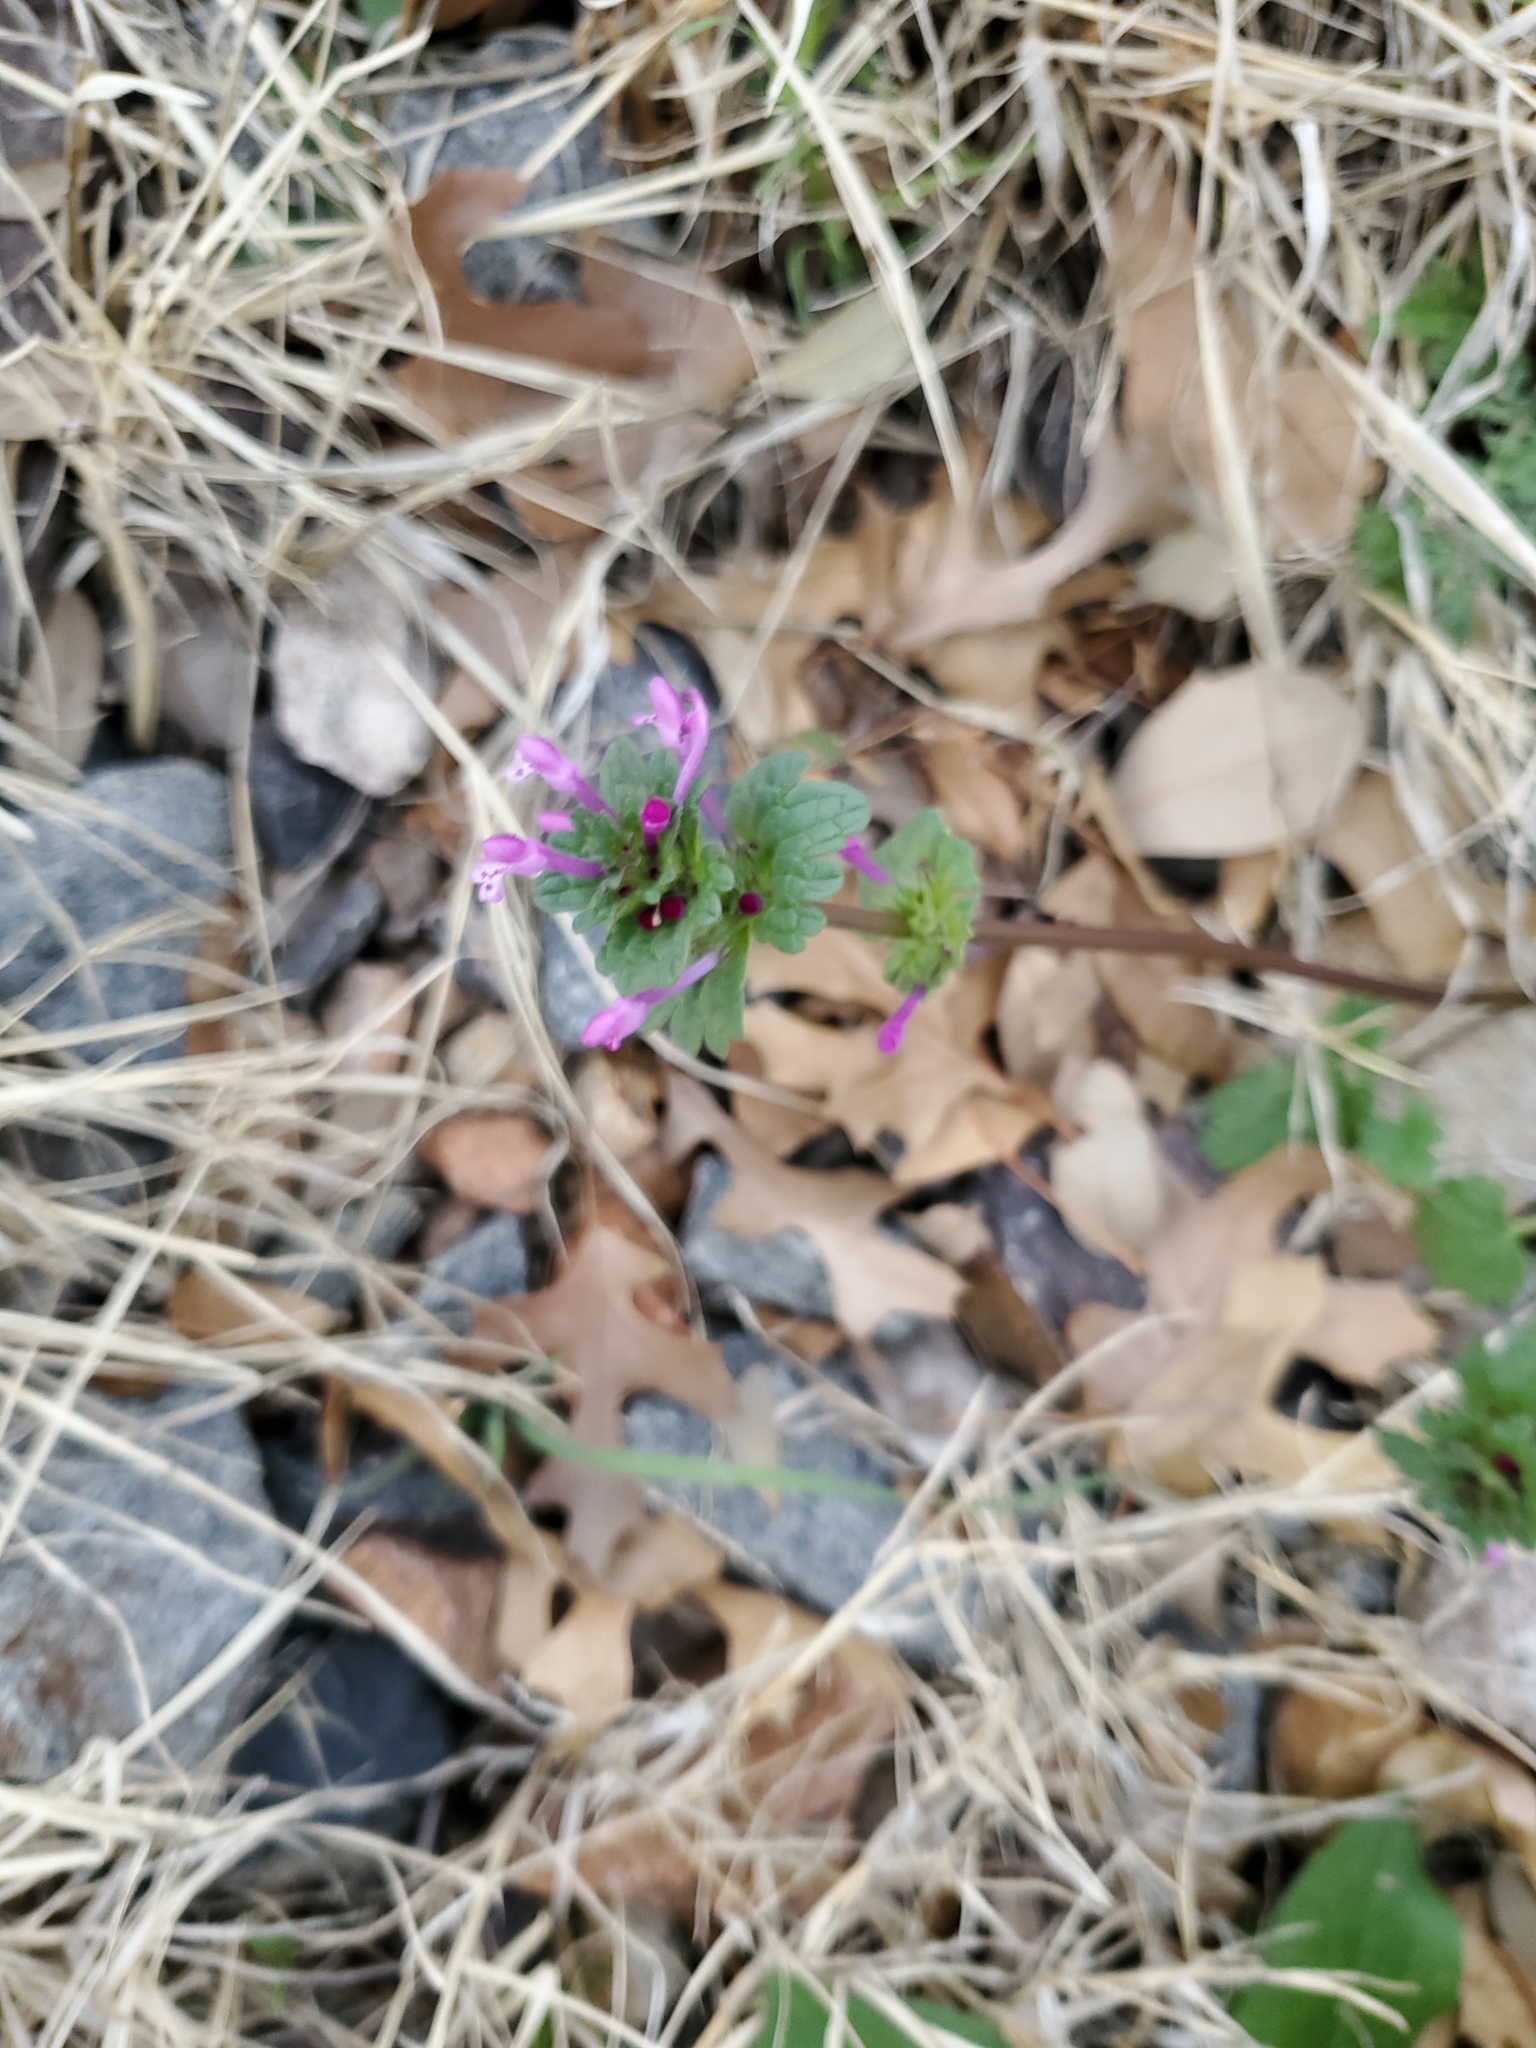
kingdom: Plantae
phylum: Tracheophyta
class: Magnoliopsida
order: Lamiales
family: Lamiaceae
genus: Lamium
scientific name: Lamium amplexicaule
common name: Henbit dead-nettle
